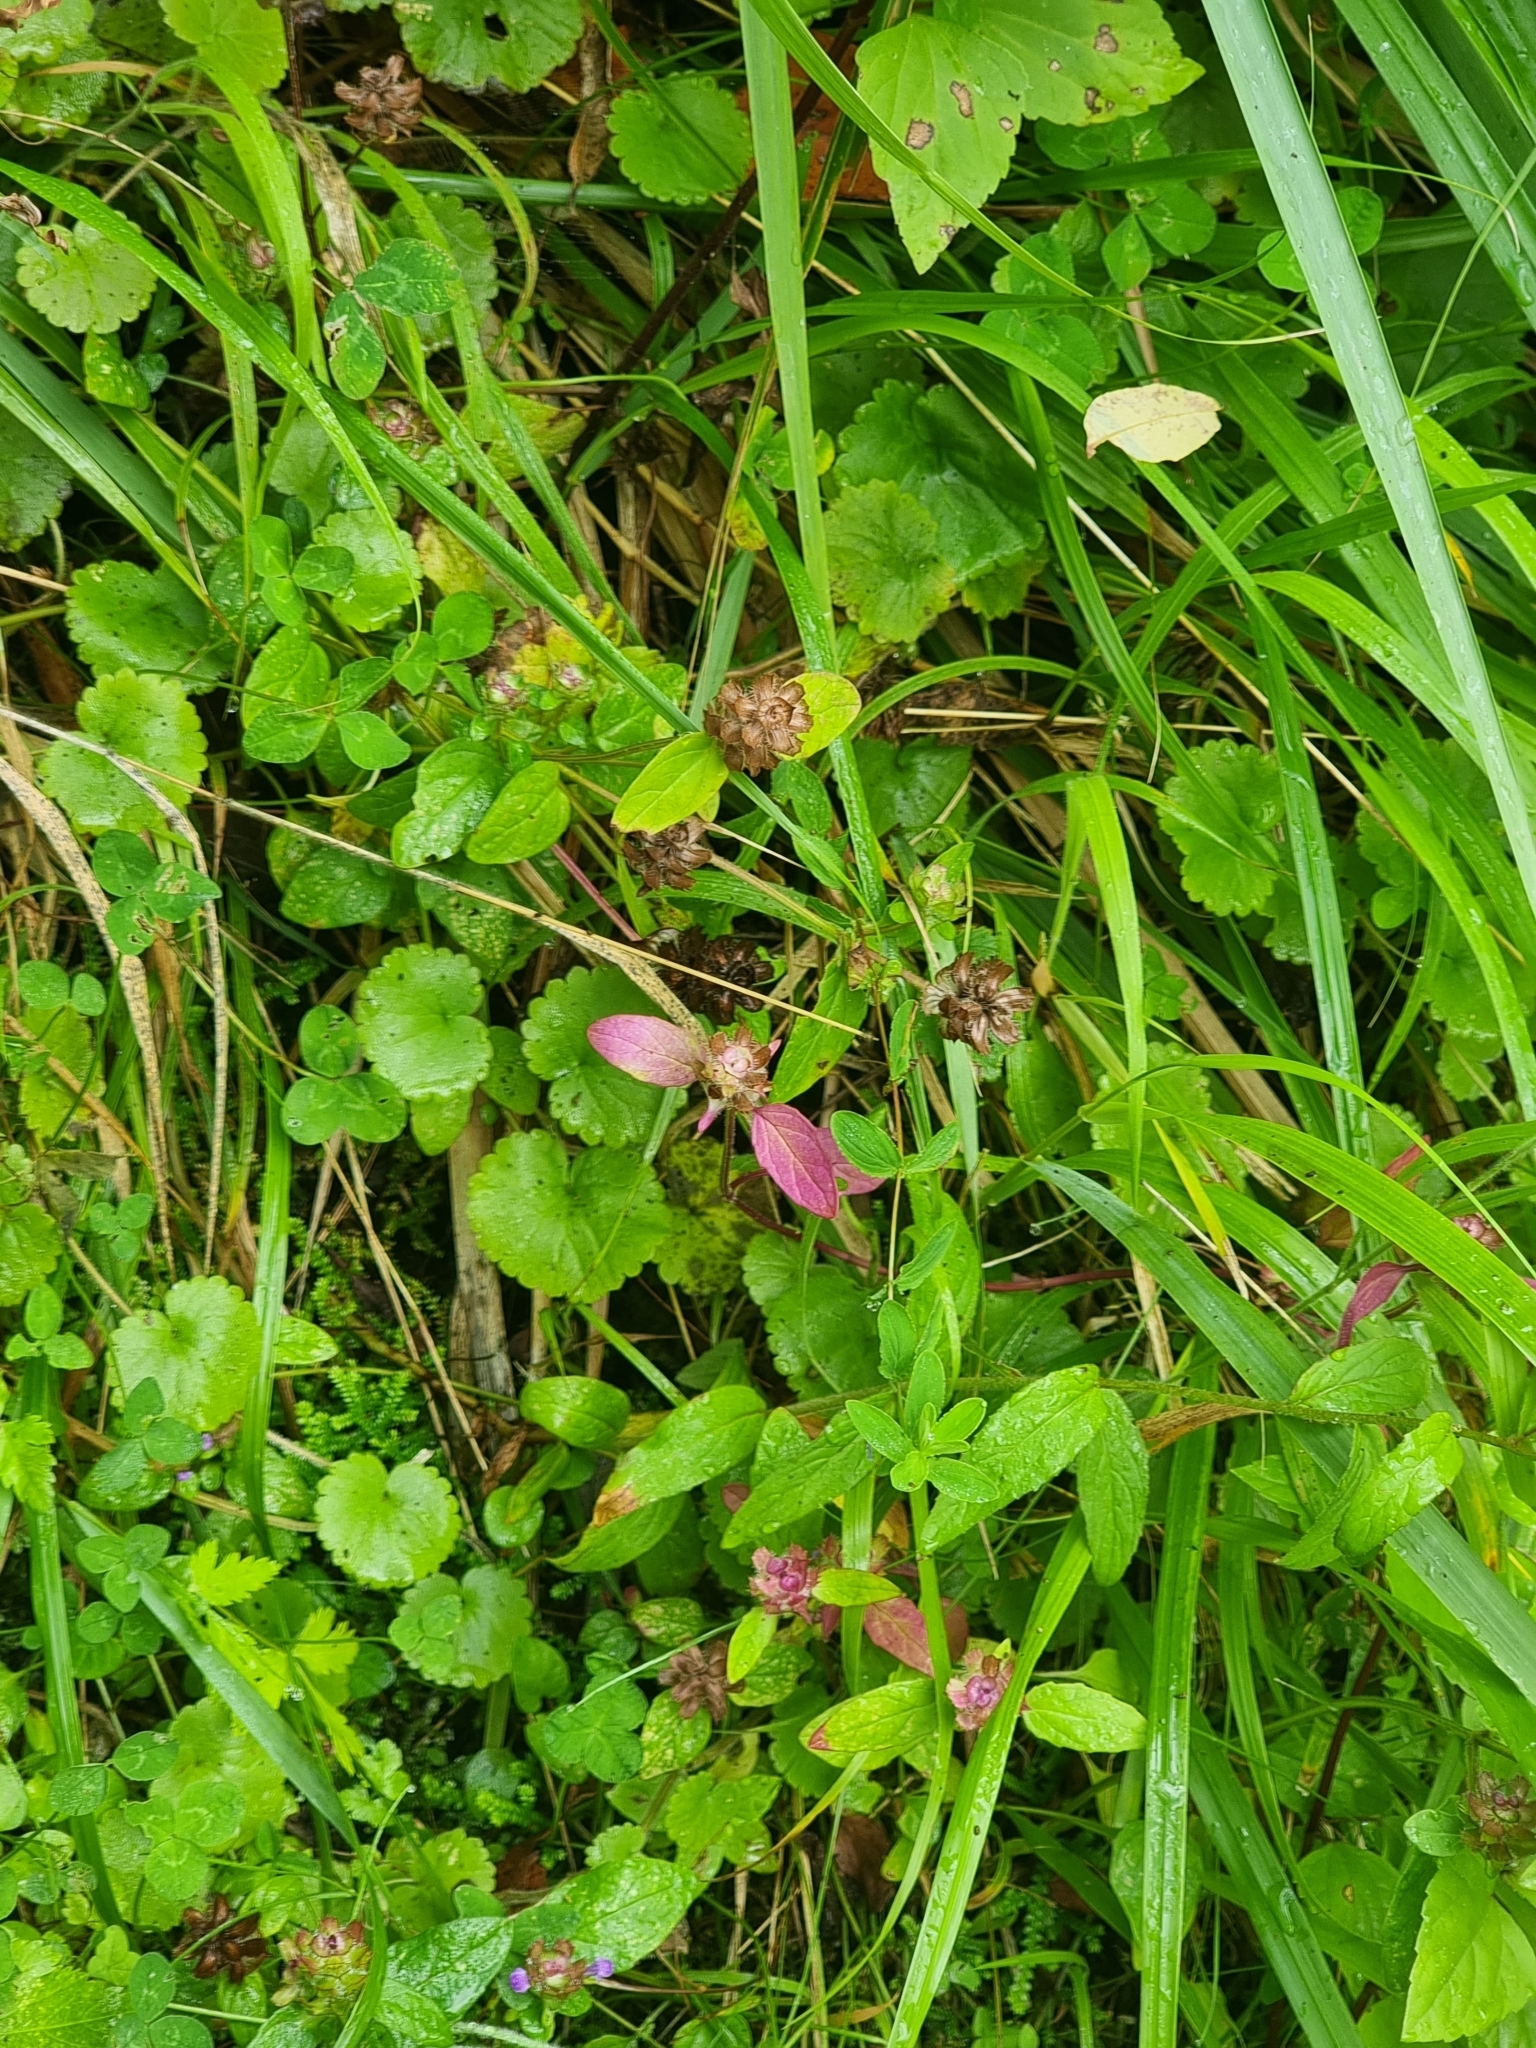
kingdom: Plantae
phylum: Tracheophyta
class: Magnoliopsida
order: Lamiales
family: Lamiaceae
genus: Prunella
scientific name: Prunella vulgaris
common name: Heal-all
